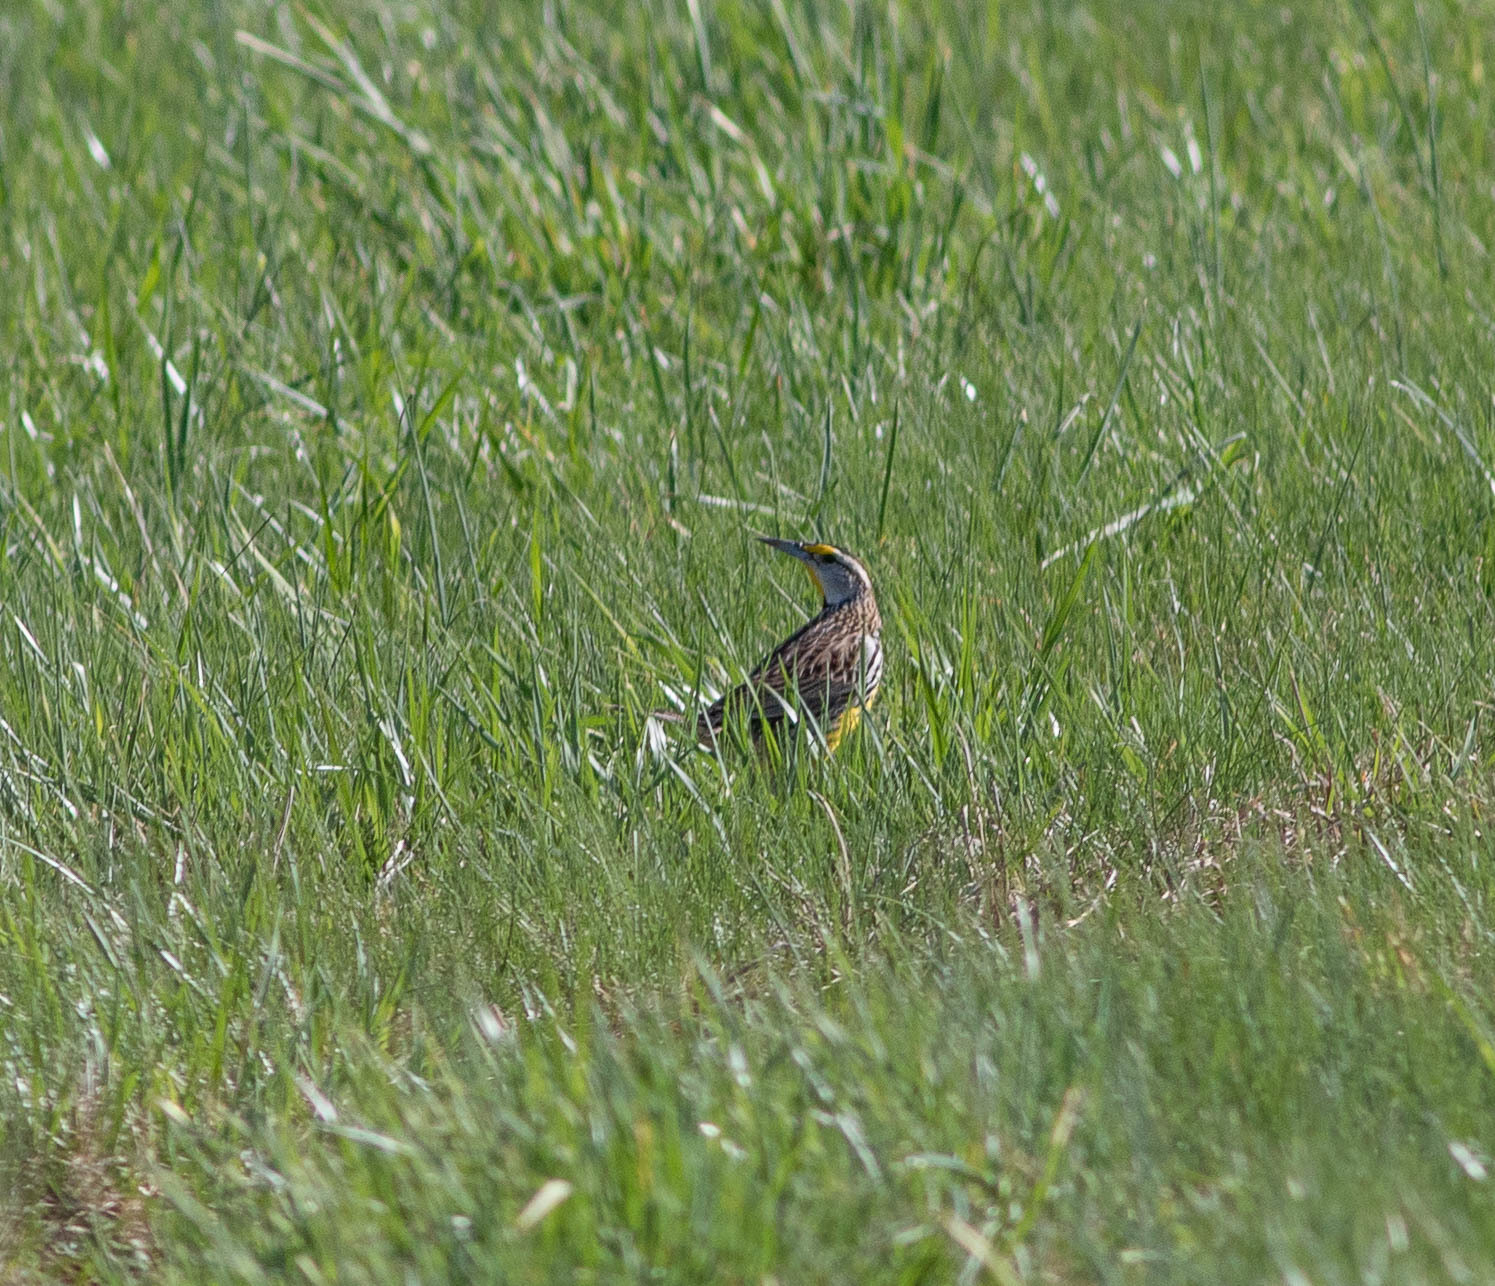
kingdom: Animalia
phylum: Chordata
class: Aves
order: Passeriformes
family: Icteridae
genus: Sturnella
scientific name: Sturnella magna
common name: Eastern meadowlark
